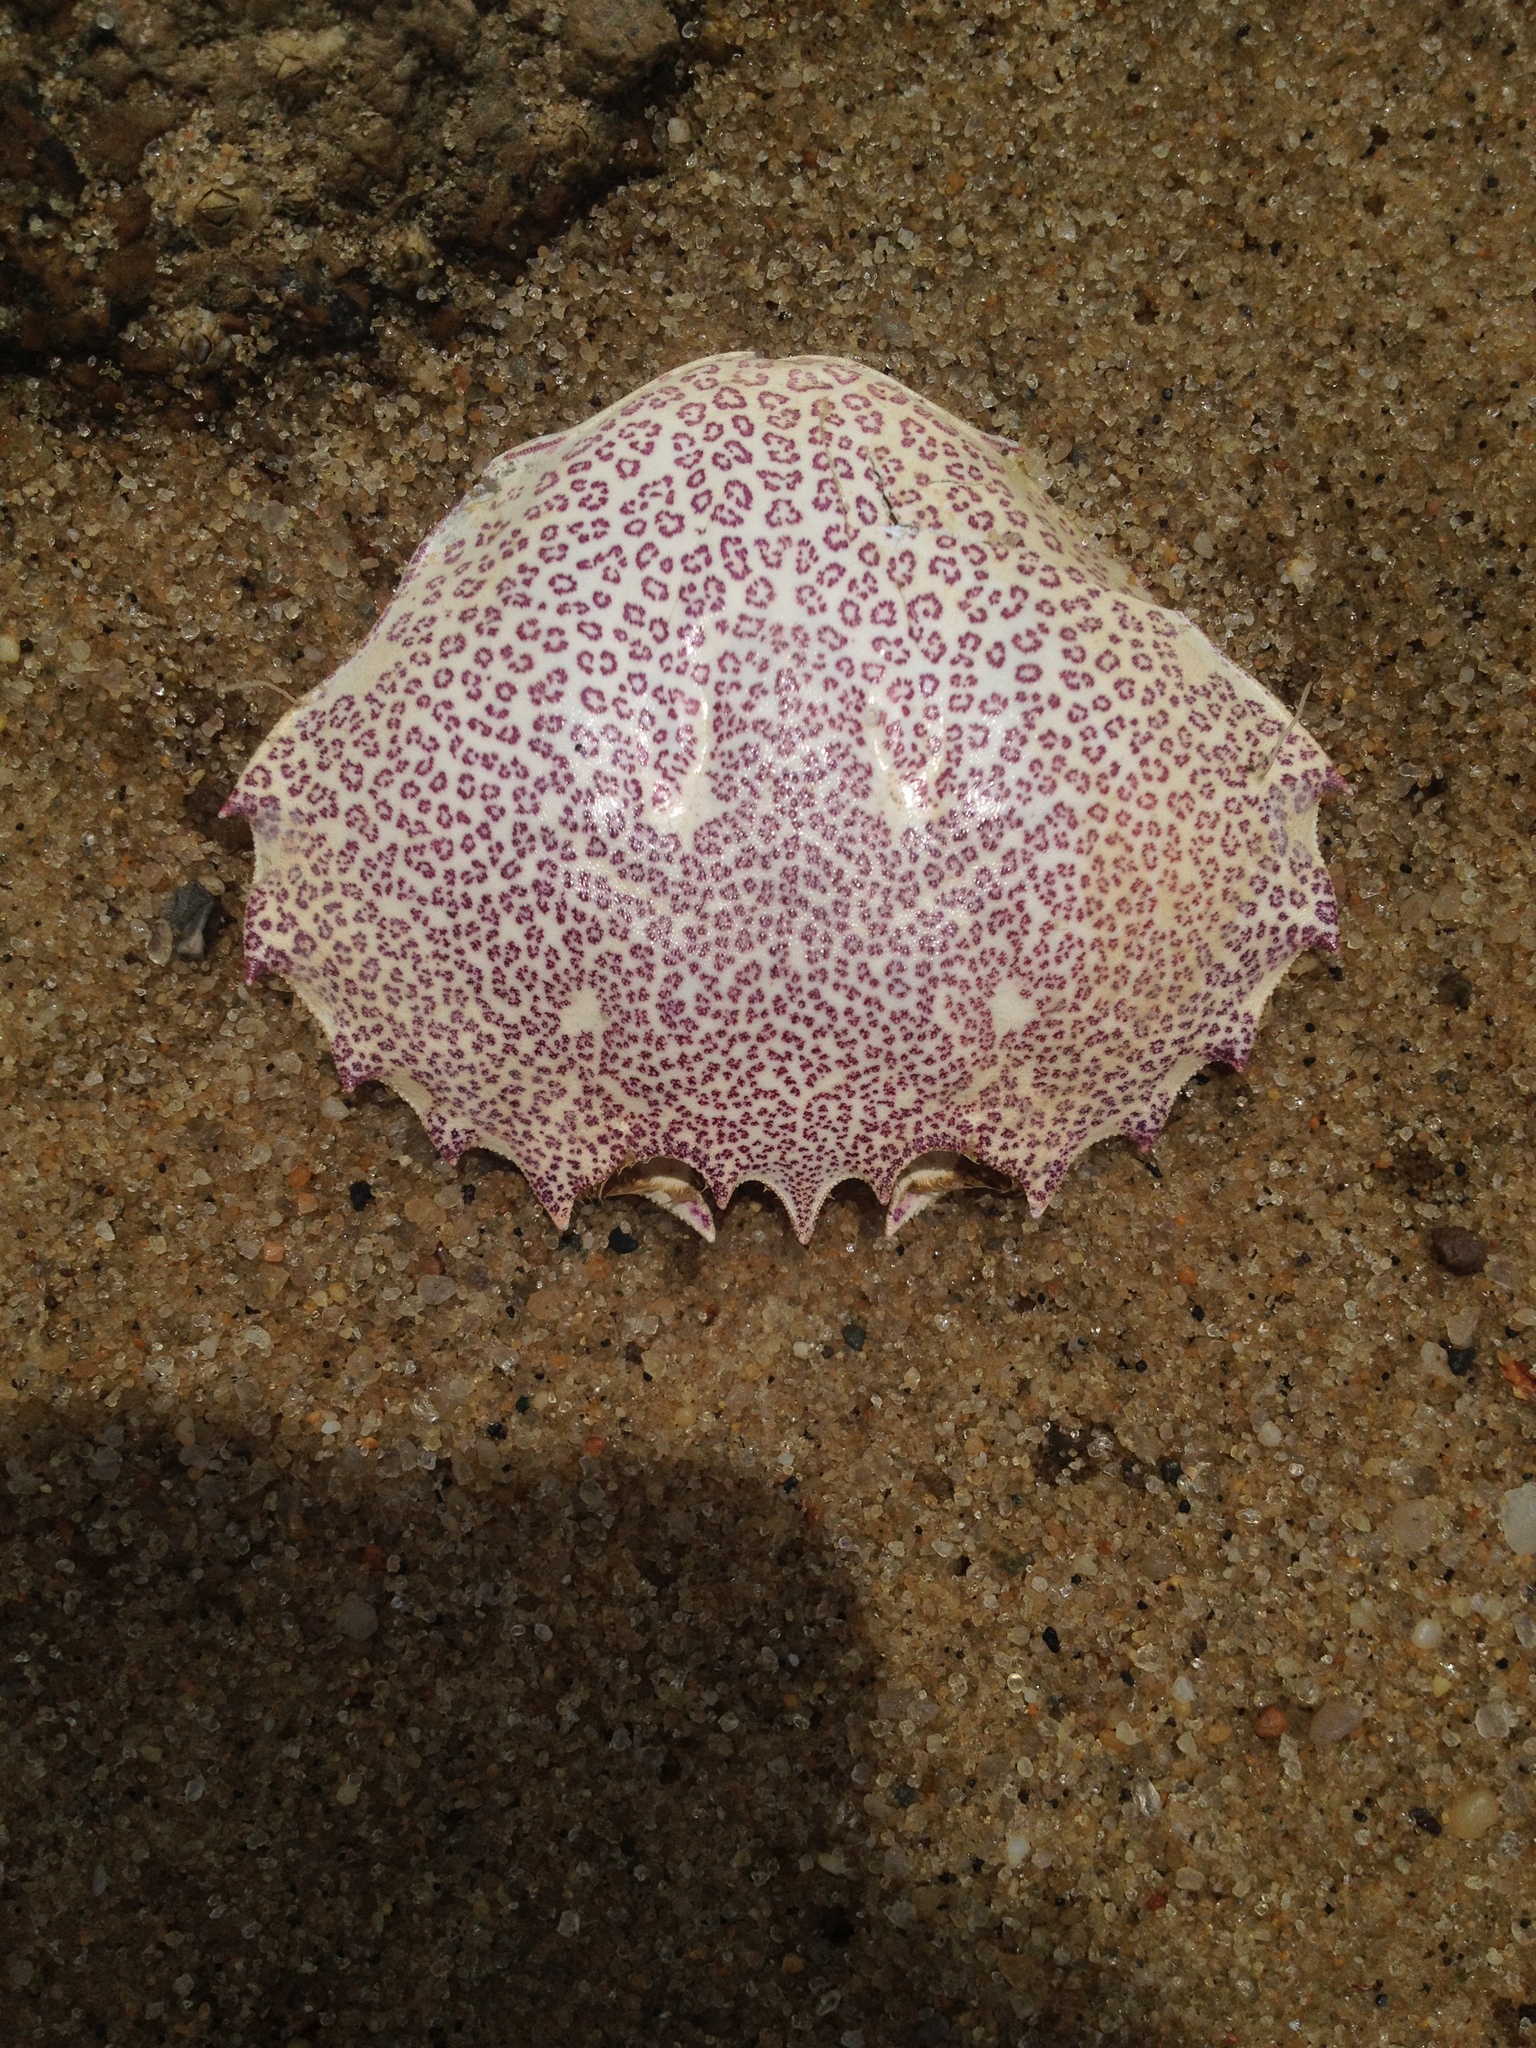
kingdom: Animalia
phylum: Arthropoda
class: Malacostraca
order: Decapoda
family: Ovalipidae
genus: Ovalipes
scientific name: Ovalipes ocellatus
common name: Lady crab
